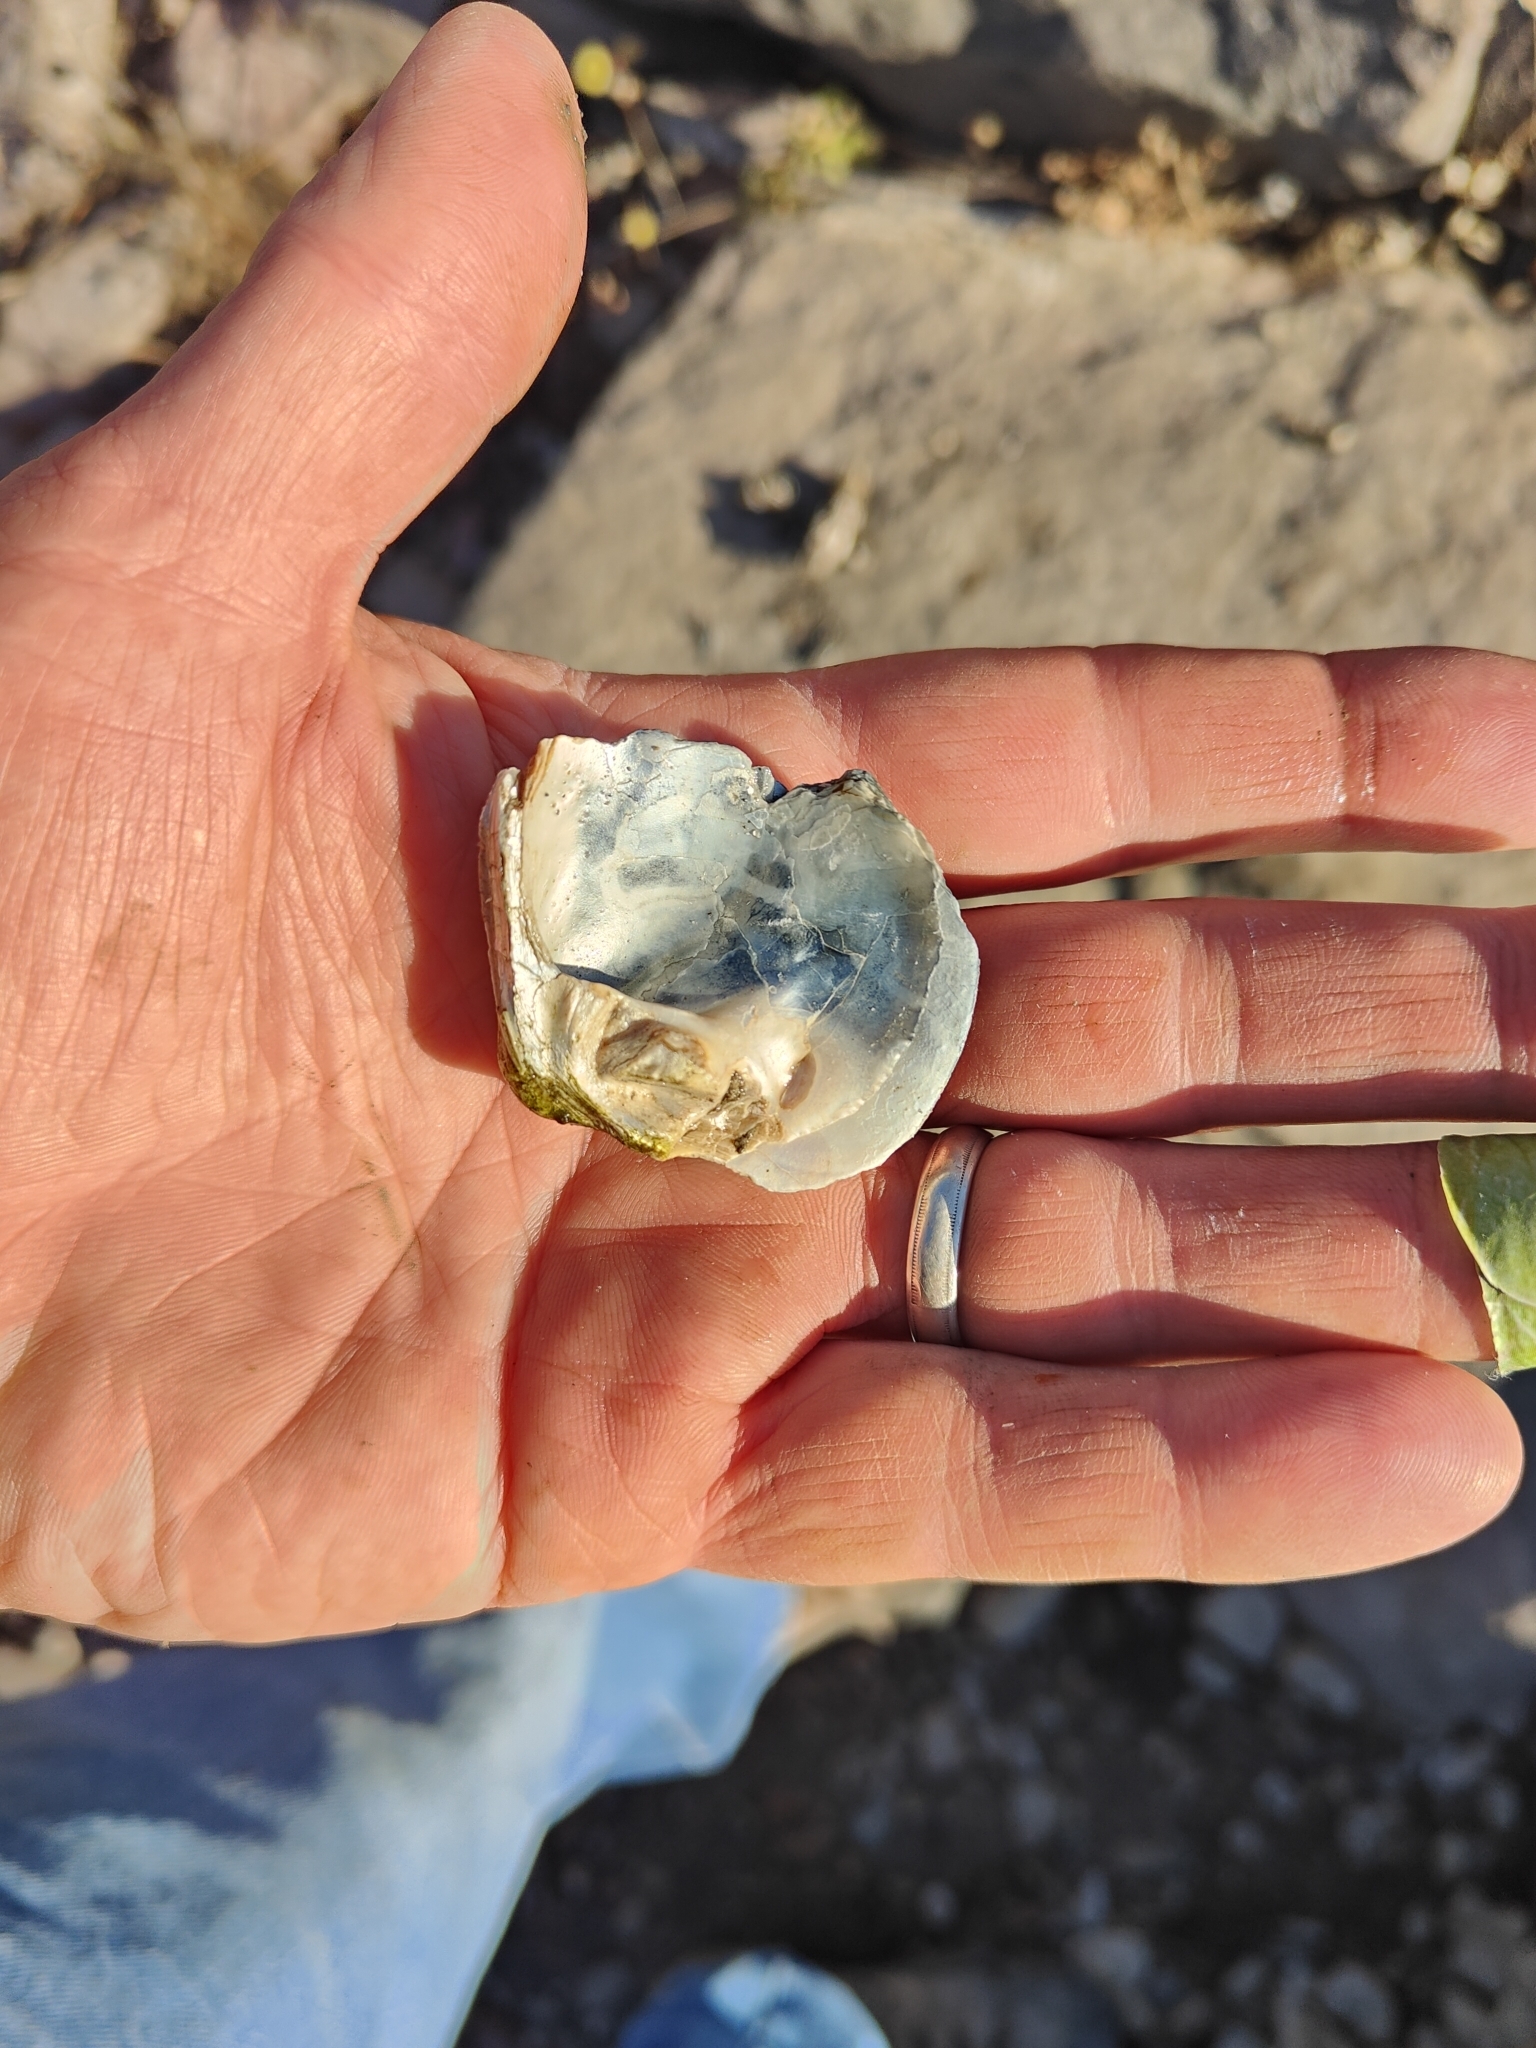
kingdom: Animalia
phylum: Mollusca
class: Bivalvia
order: Unionida
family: Unionidae
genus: Cyclonaias
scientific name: Cyclonaias pustulosa
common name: Pimpleback
